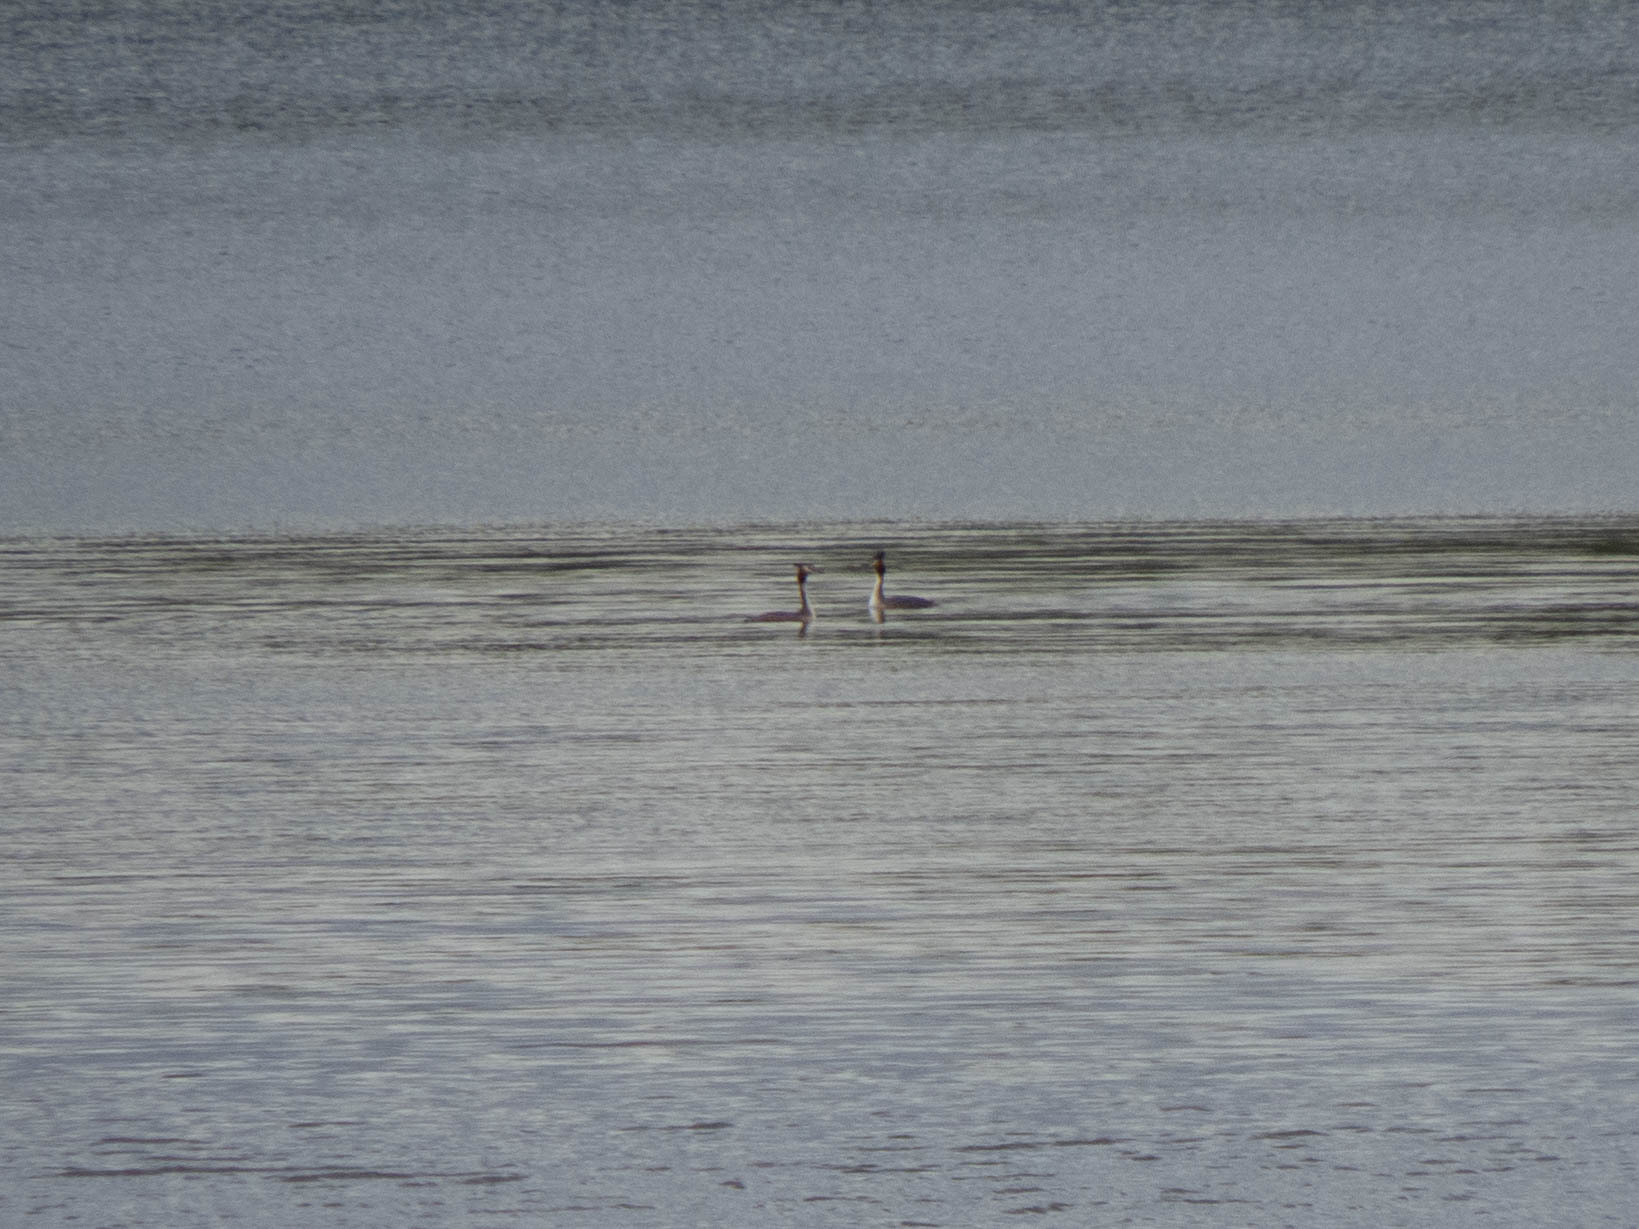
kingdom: Animalia
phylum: Chordata
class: Aves
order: Podicipediformes
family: Podicipedidae
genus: Podiceps
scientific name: Podiceps cristatus
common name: Great crested grebe
